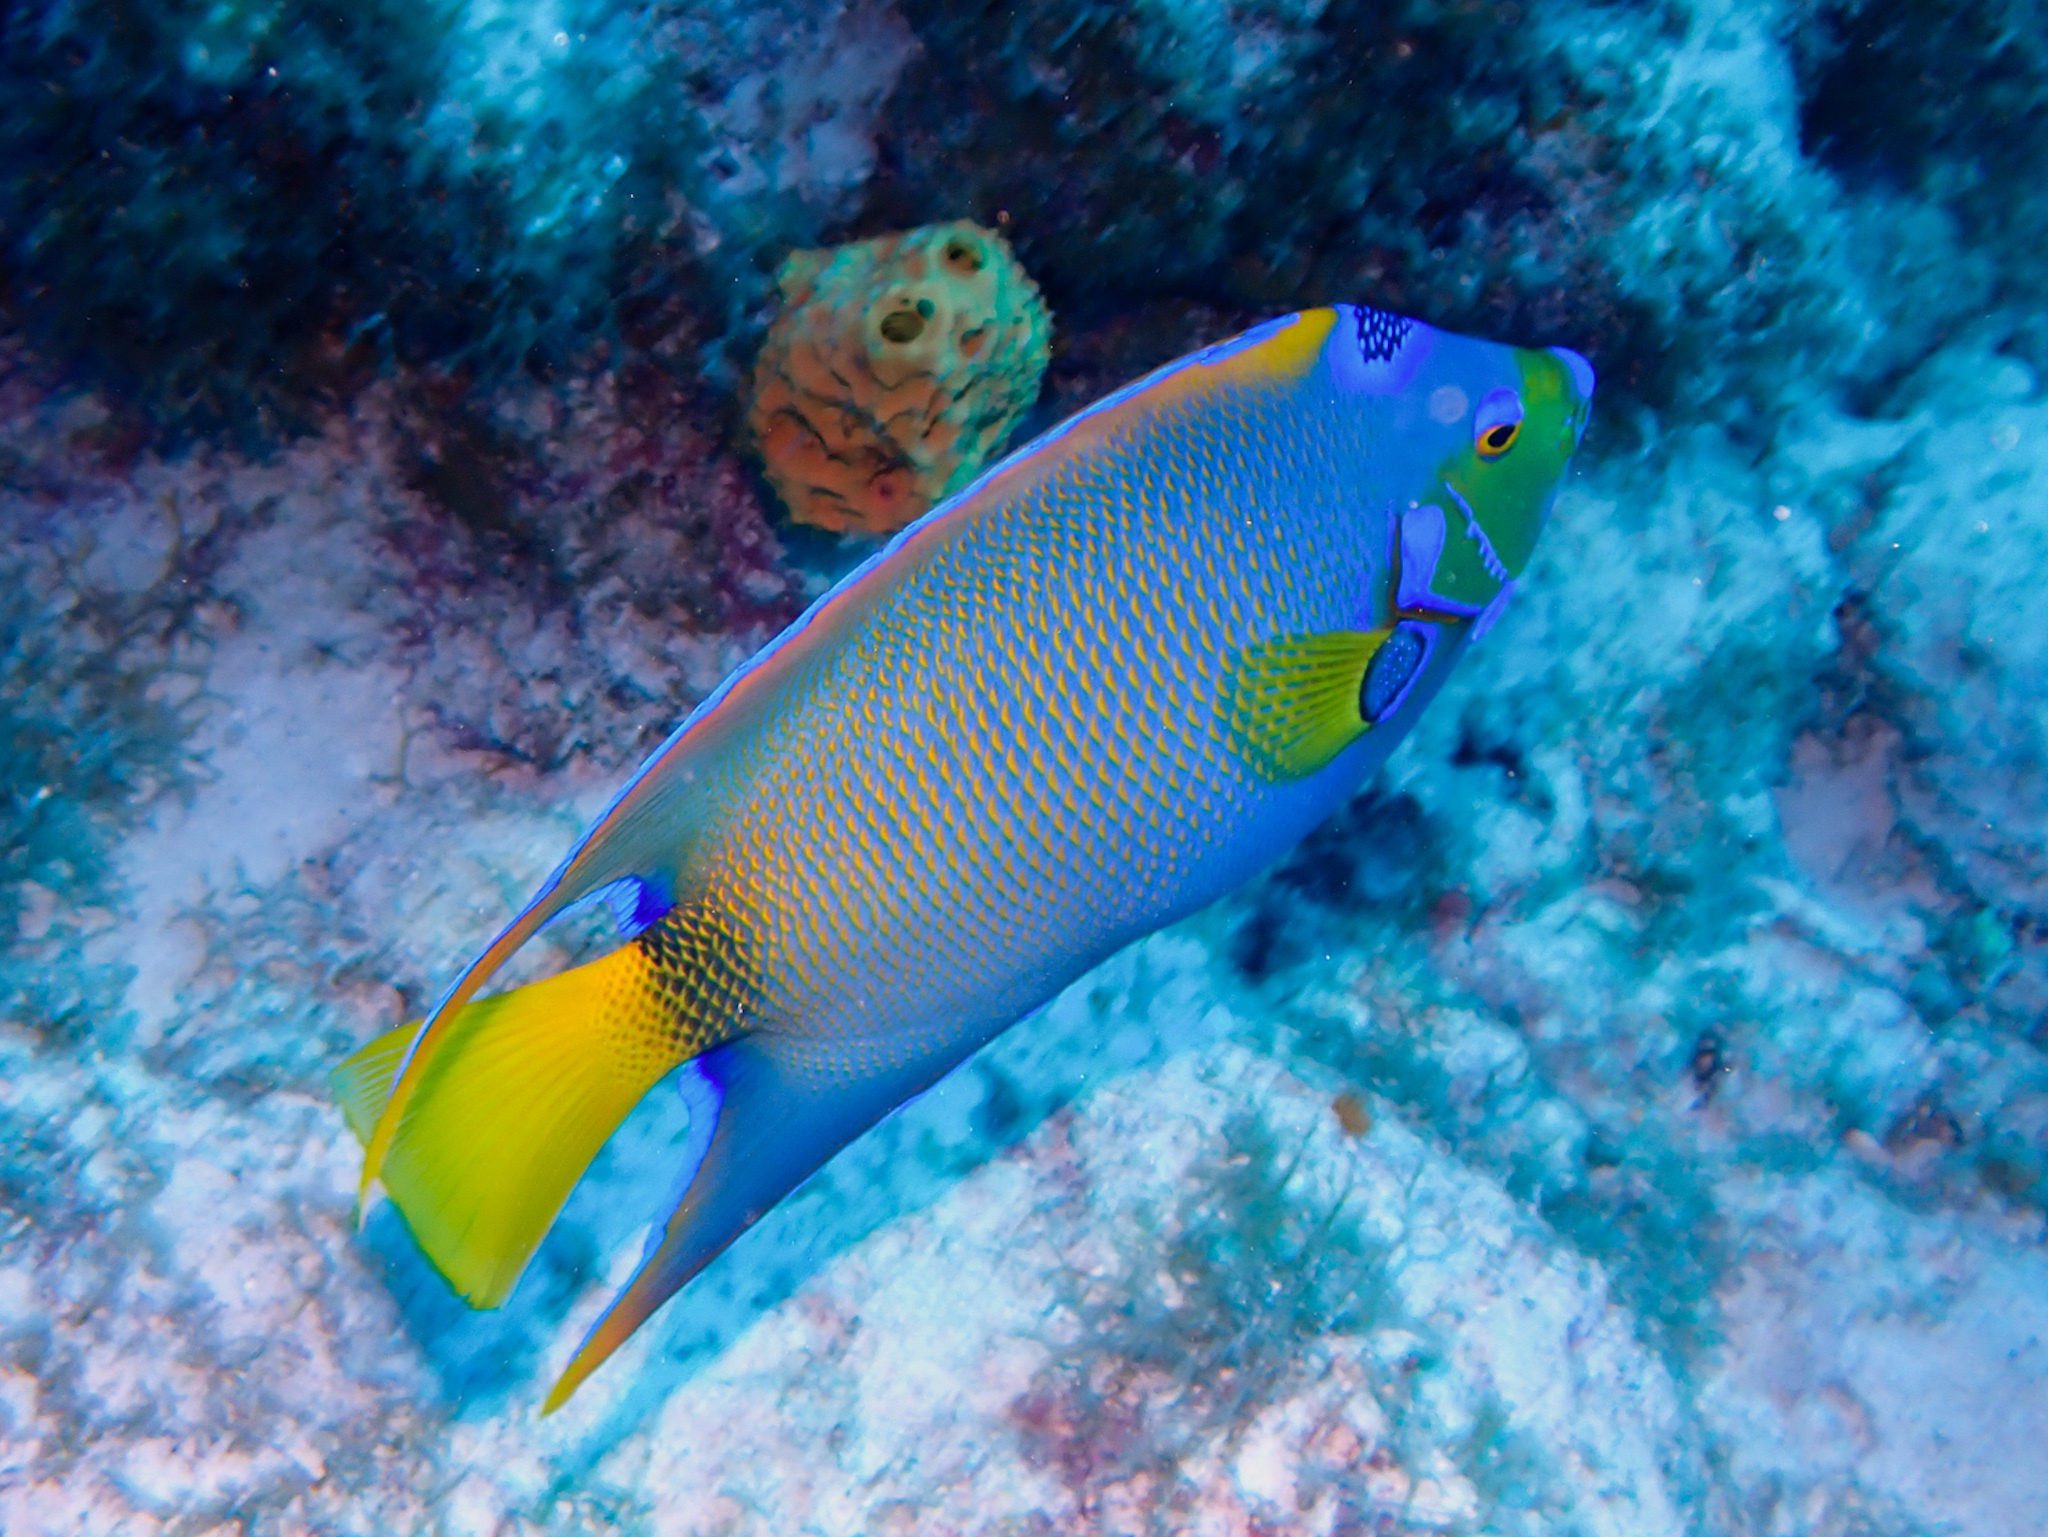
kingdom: Animalia
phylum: Chordata
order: Perciformes
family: Pomacanthidae
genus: Holacanthus
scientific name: Holacanthus ciliaris
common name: Queen angelfish
